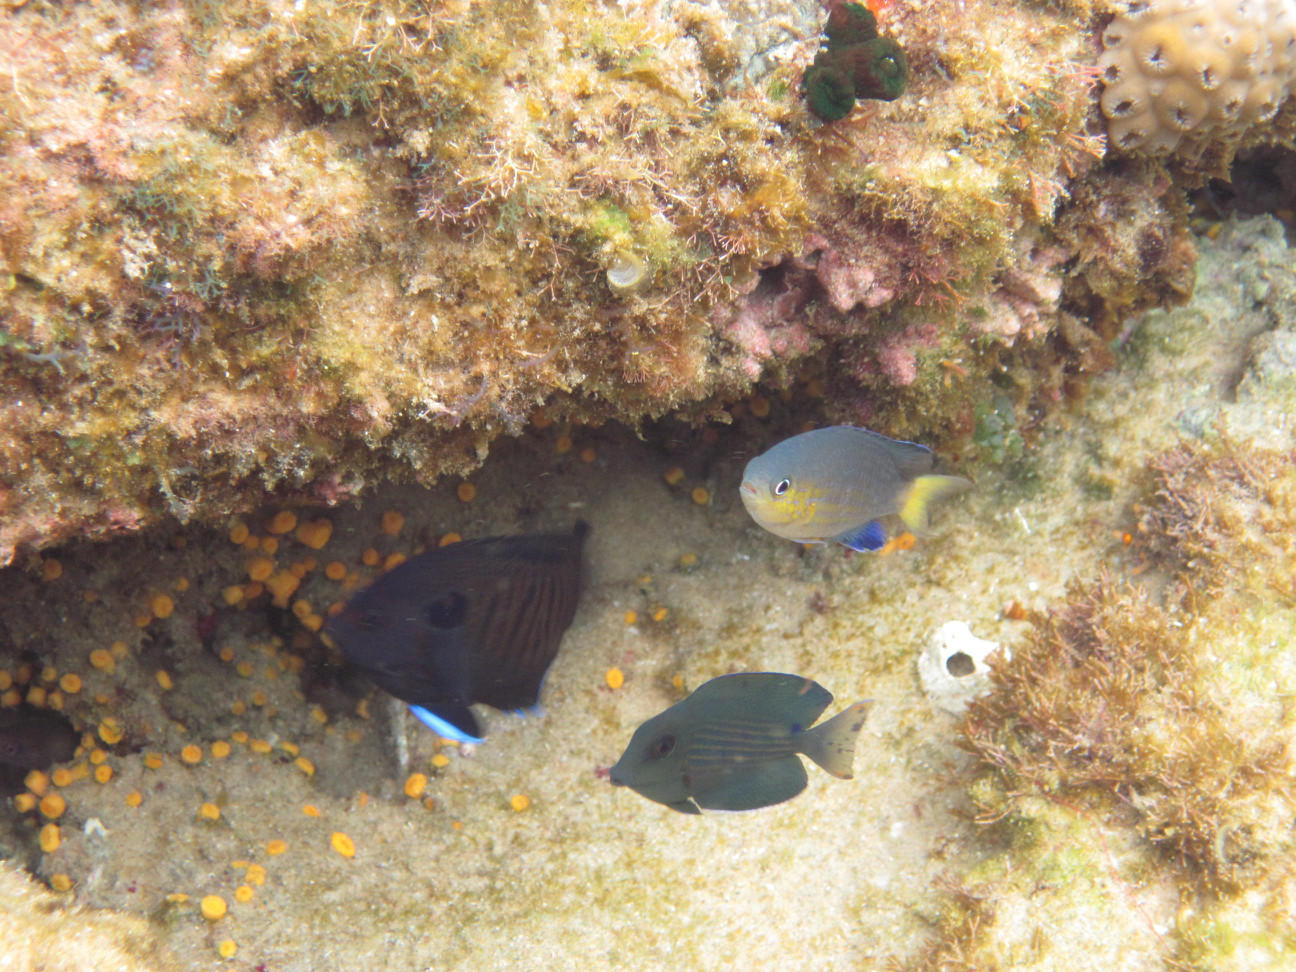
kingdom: Animalia
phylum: Chordata
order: Perciformes
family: Pomacentridae
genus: Chromis
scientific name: Chromis nigrura
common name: Blacktail chromis
